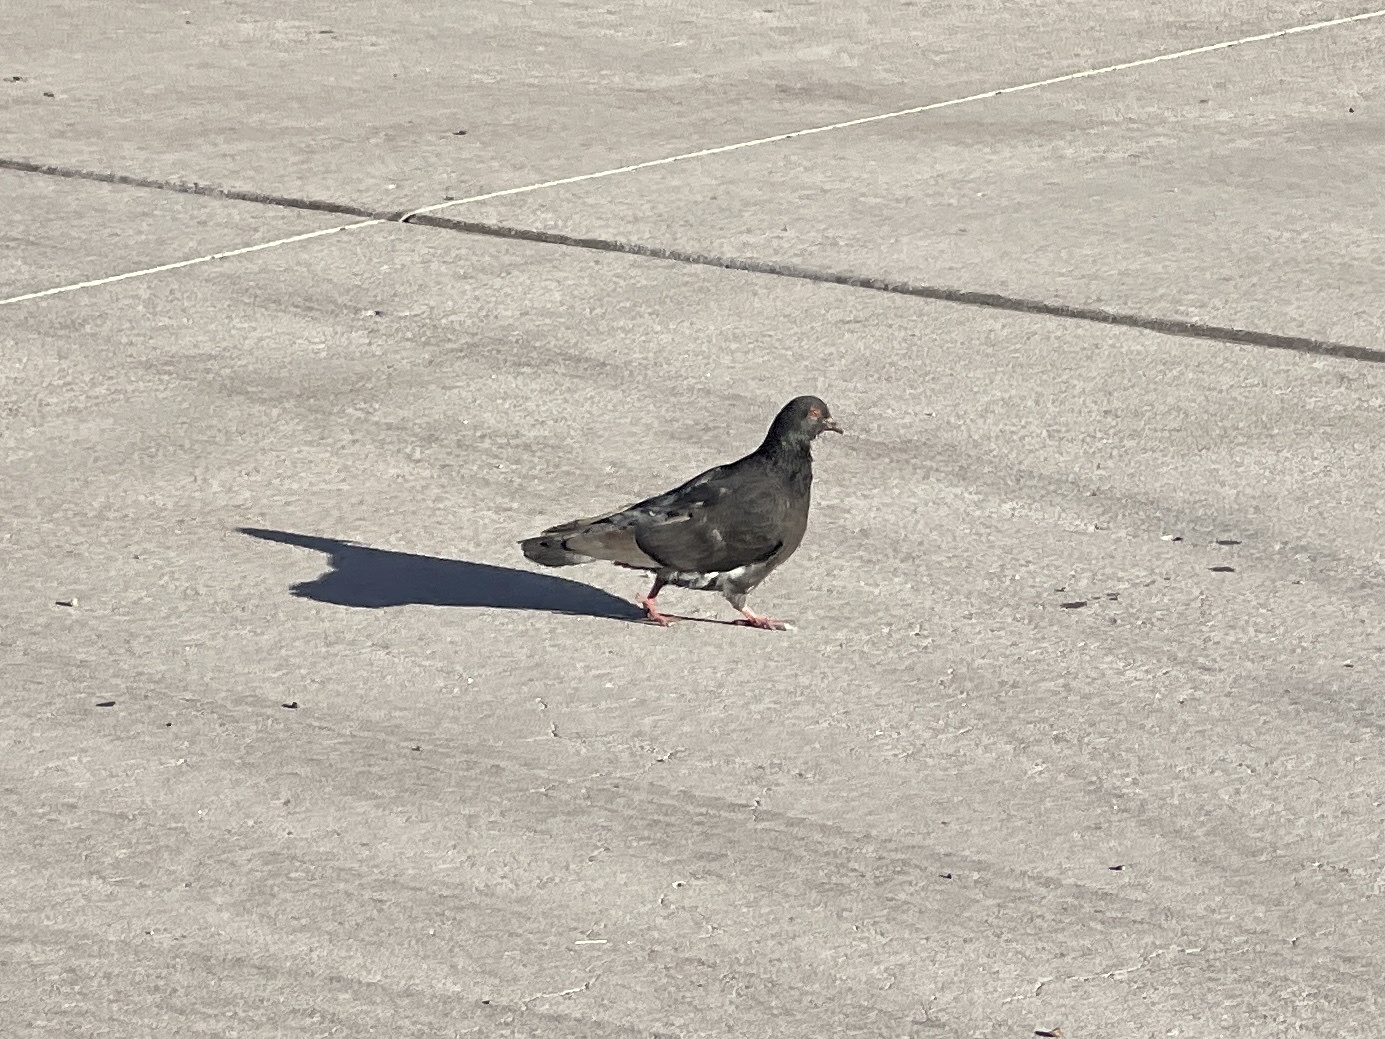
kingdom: Animalia
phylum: Chordata
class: Aves
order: Columbiformes
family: Columbidae
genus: Columba
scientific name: Columba livia
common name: Rock pigeon
